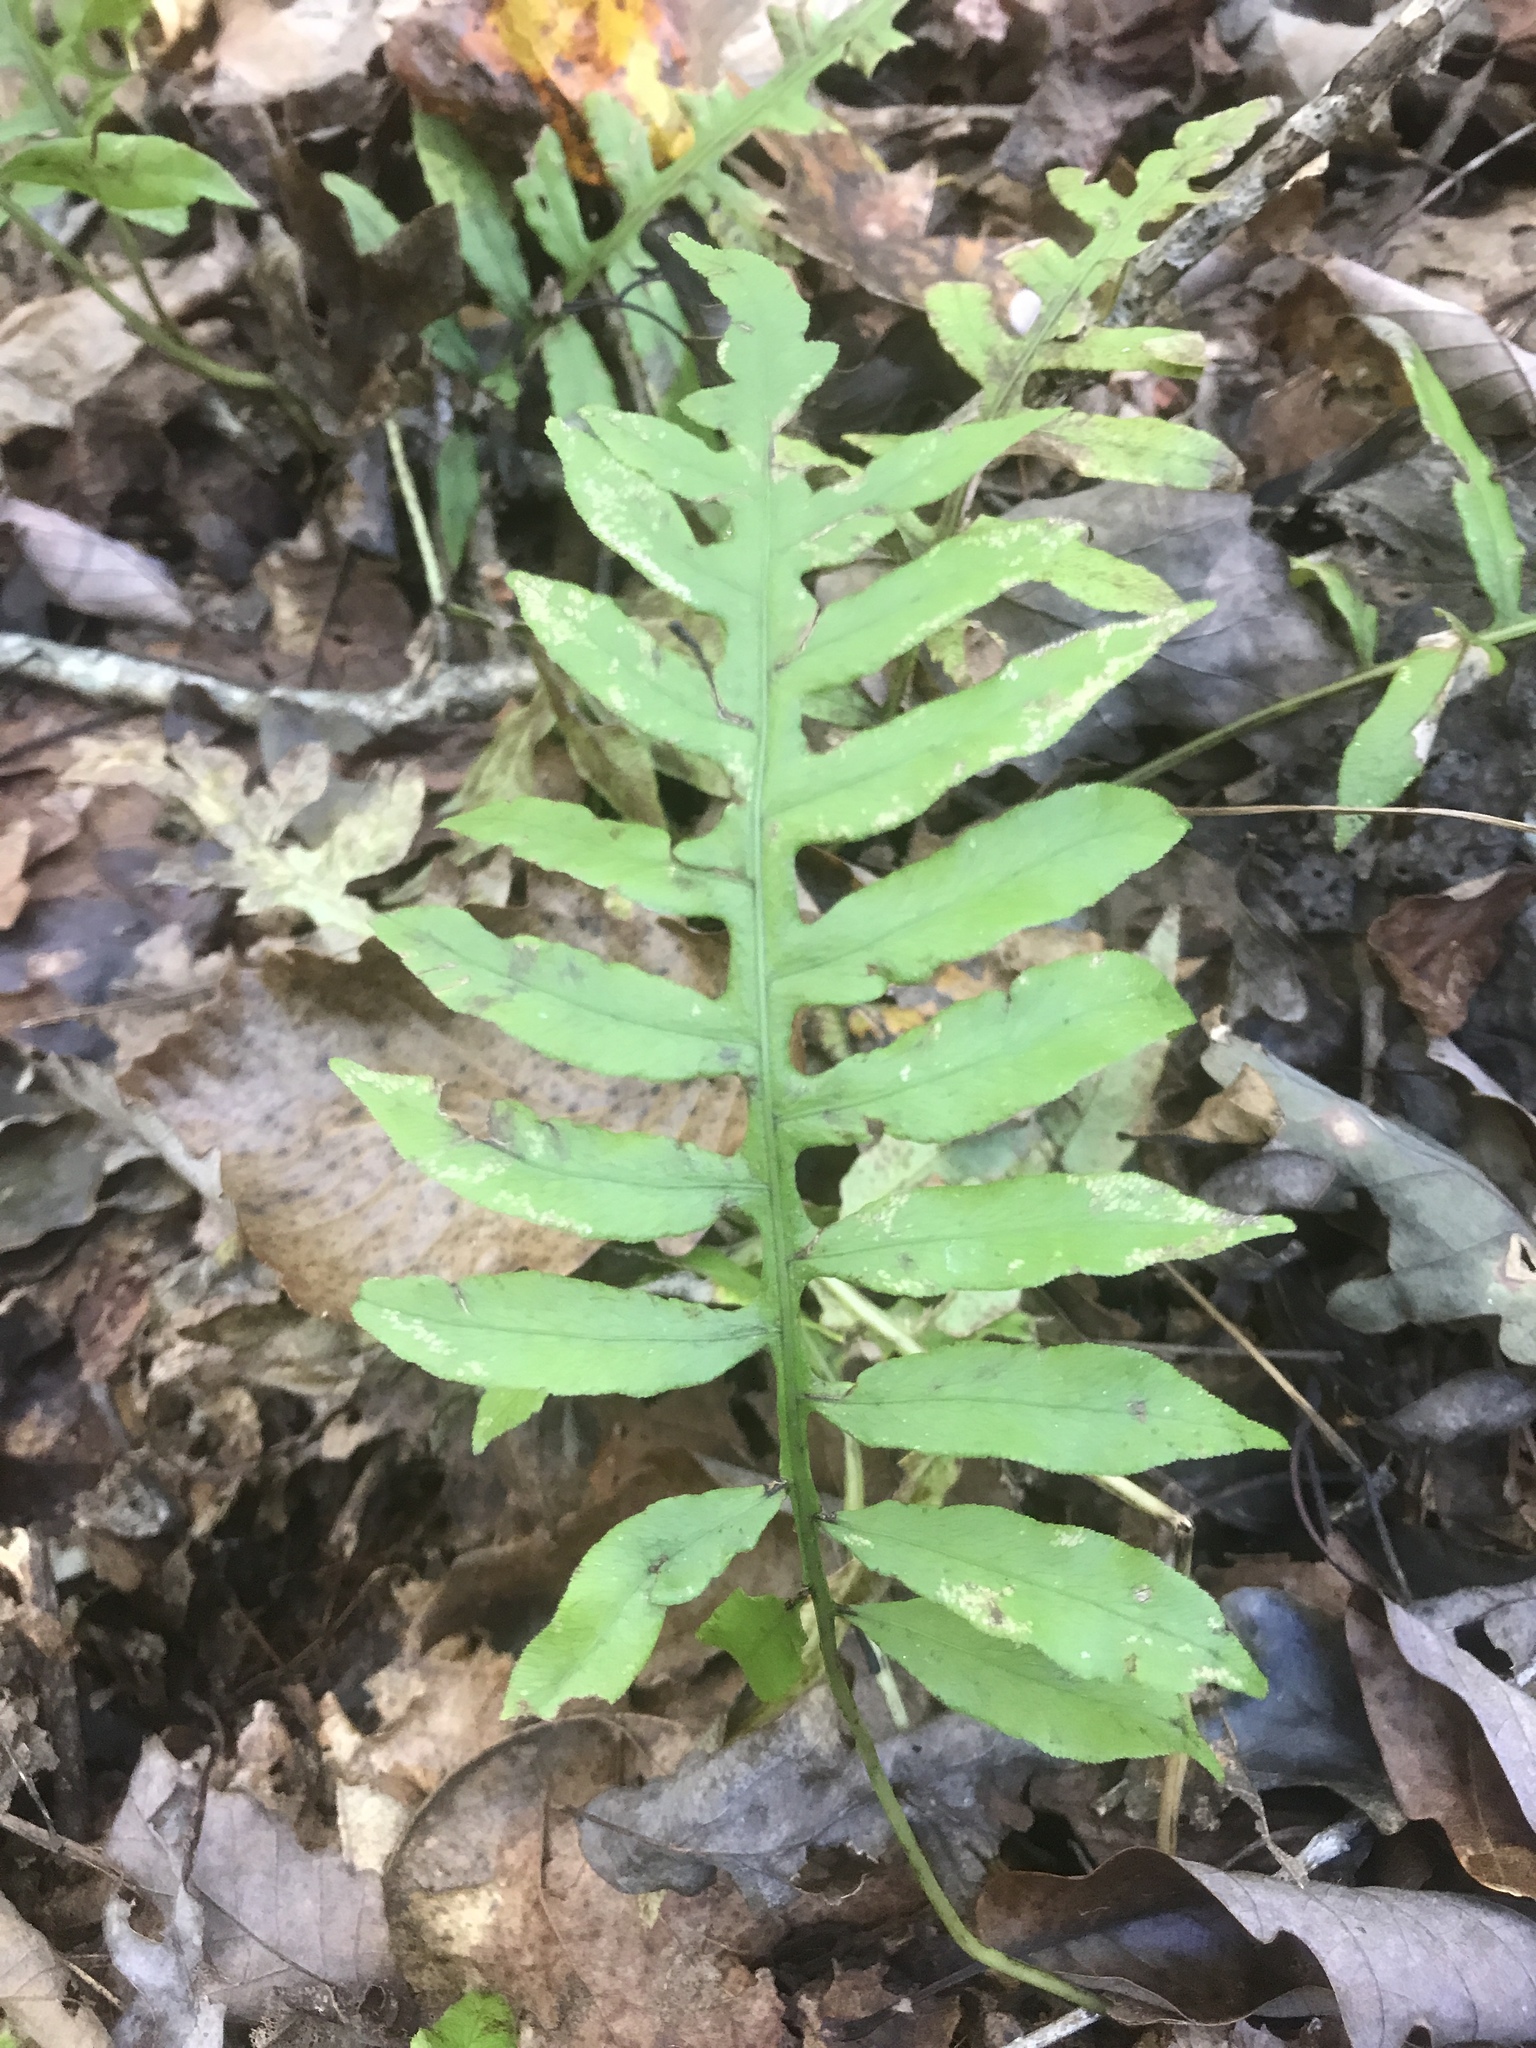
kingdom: Plantae
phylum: Tracheophyta
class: Polypodiopsida
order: Polypodiales
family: Blechnaceae
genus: Lorinseria
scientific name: Lorinseria areolata
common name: Dwarf chain fern
